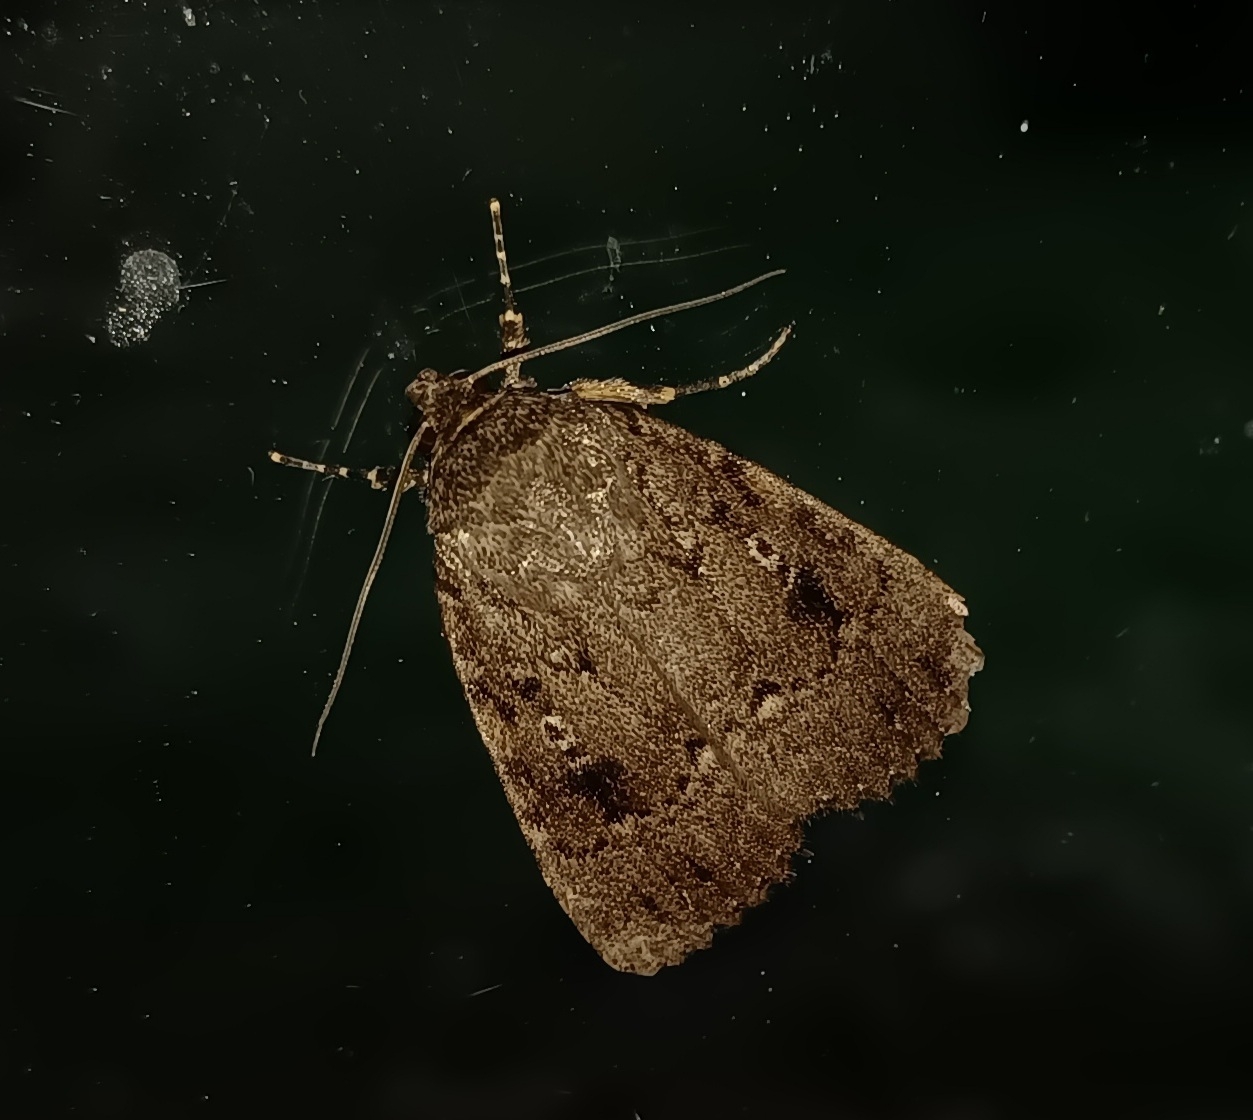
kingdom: Animalia
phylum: Arthropoda
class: Insecta
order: Lepidoptera
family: Noctuidae
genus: Amphipyra
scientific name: Amphipyra pyramidea
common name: Copper underwing
